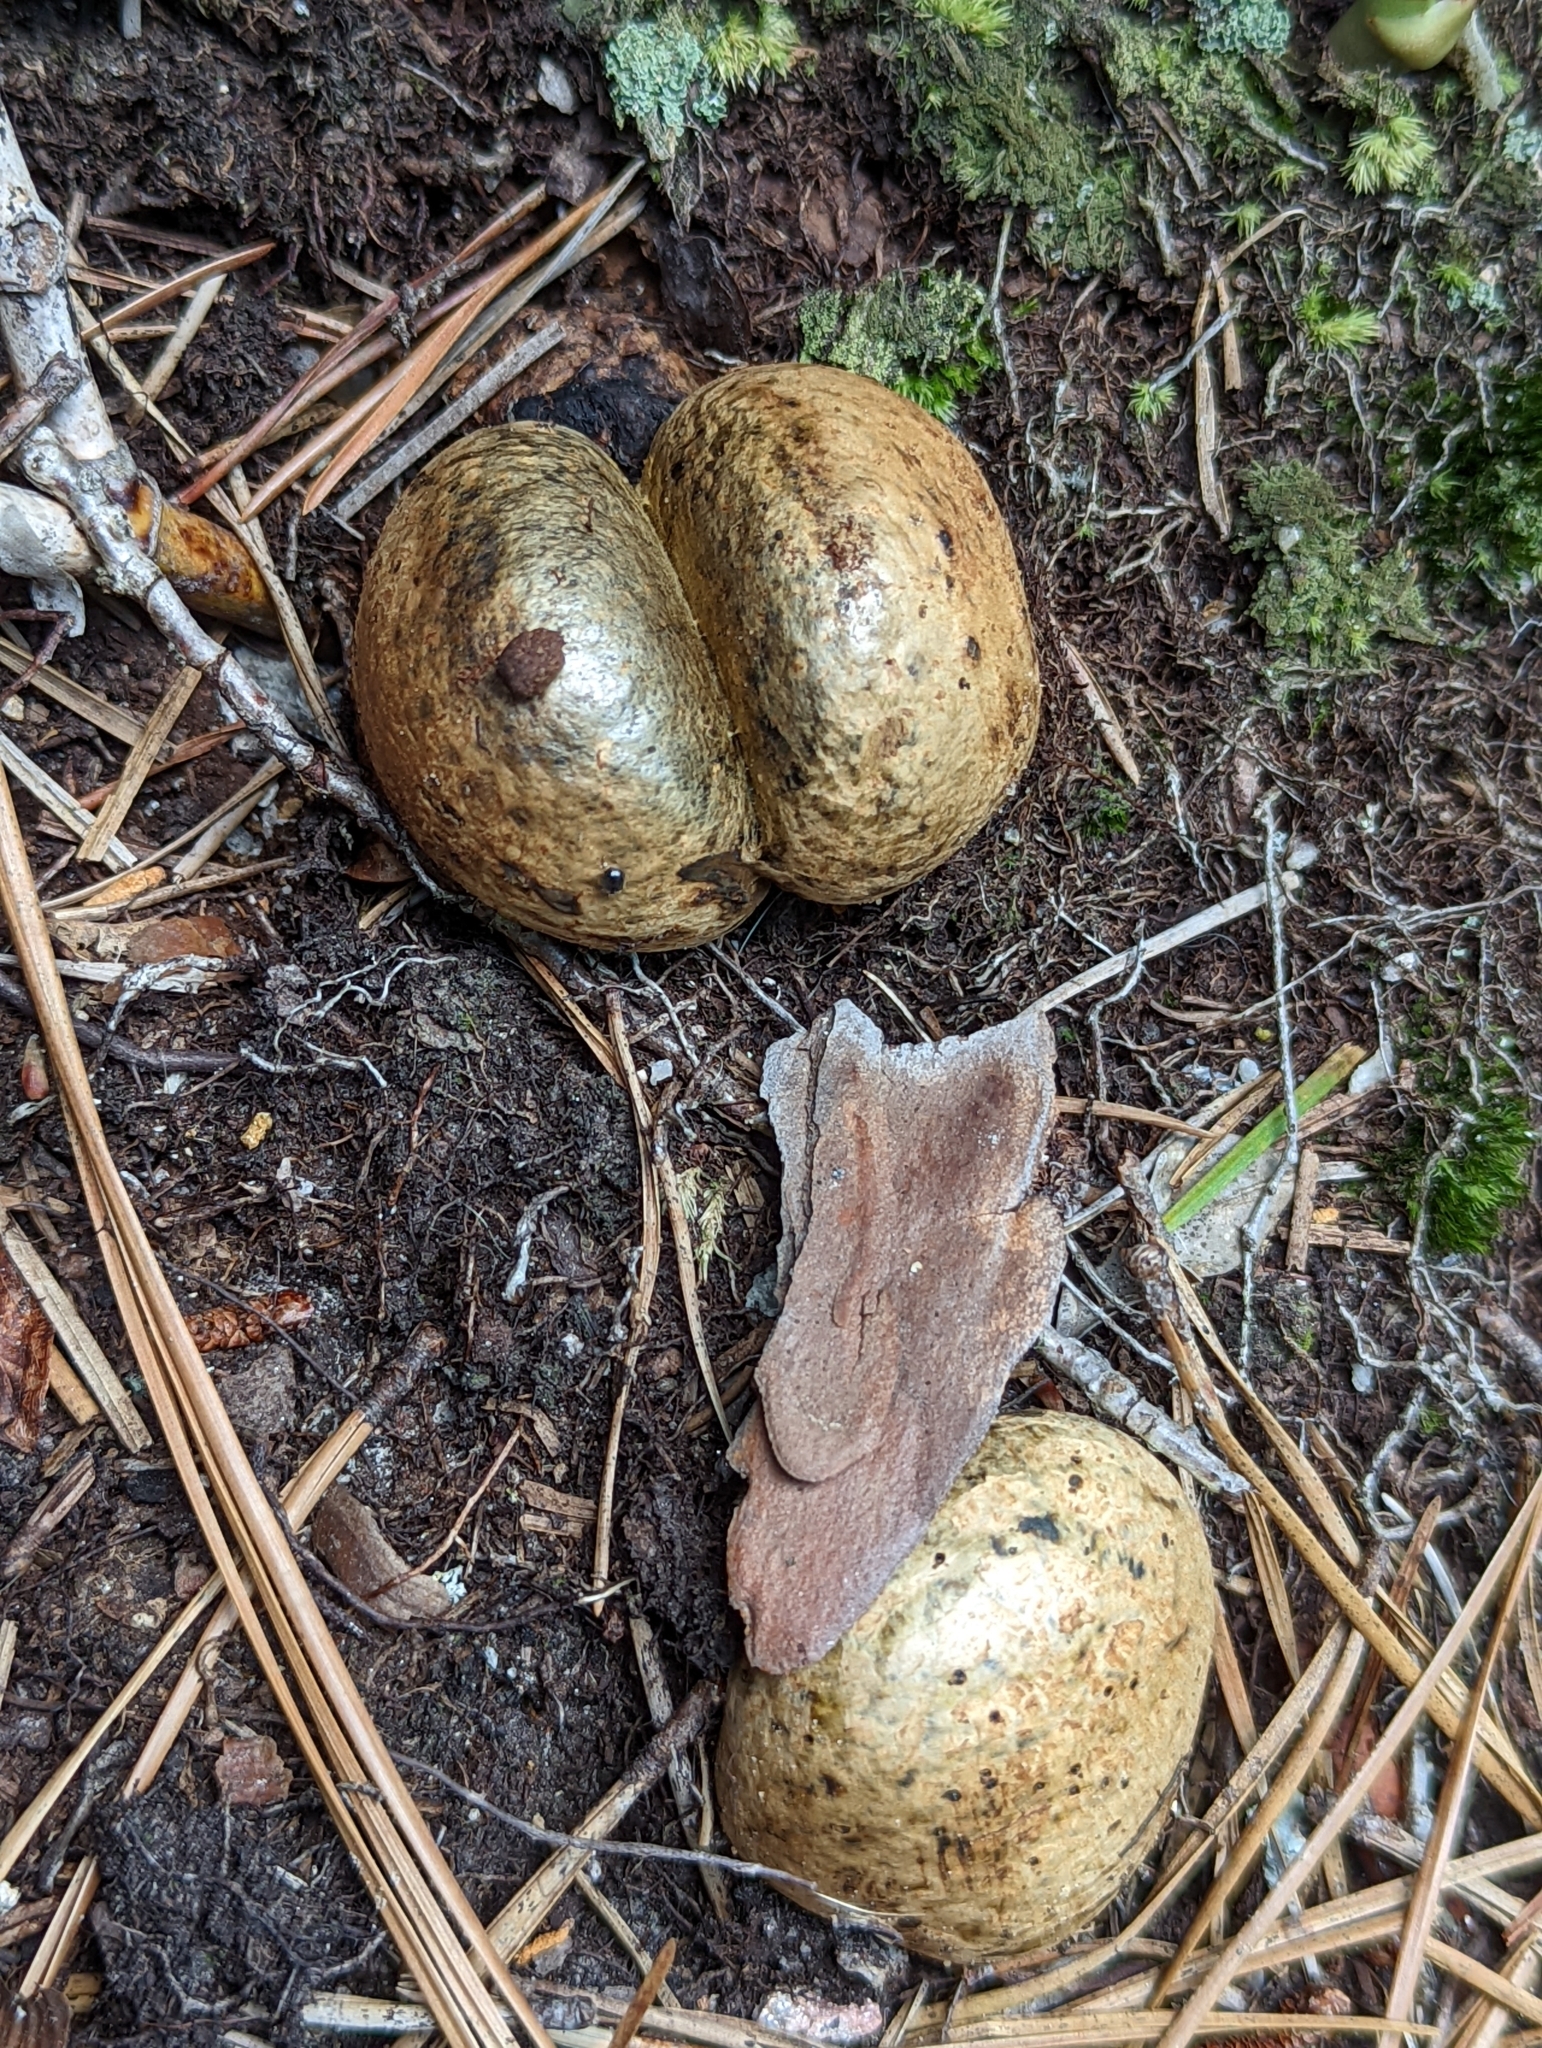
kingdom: Fungi
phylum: Basidiomycota
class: Agaricomycetes
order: Boletales
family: Sclerodermataceae
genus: Pisolithus
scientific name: Pisolithus arenarius
